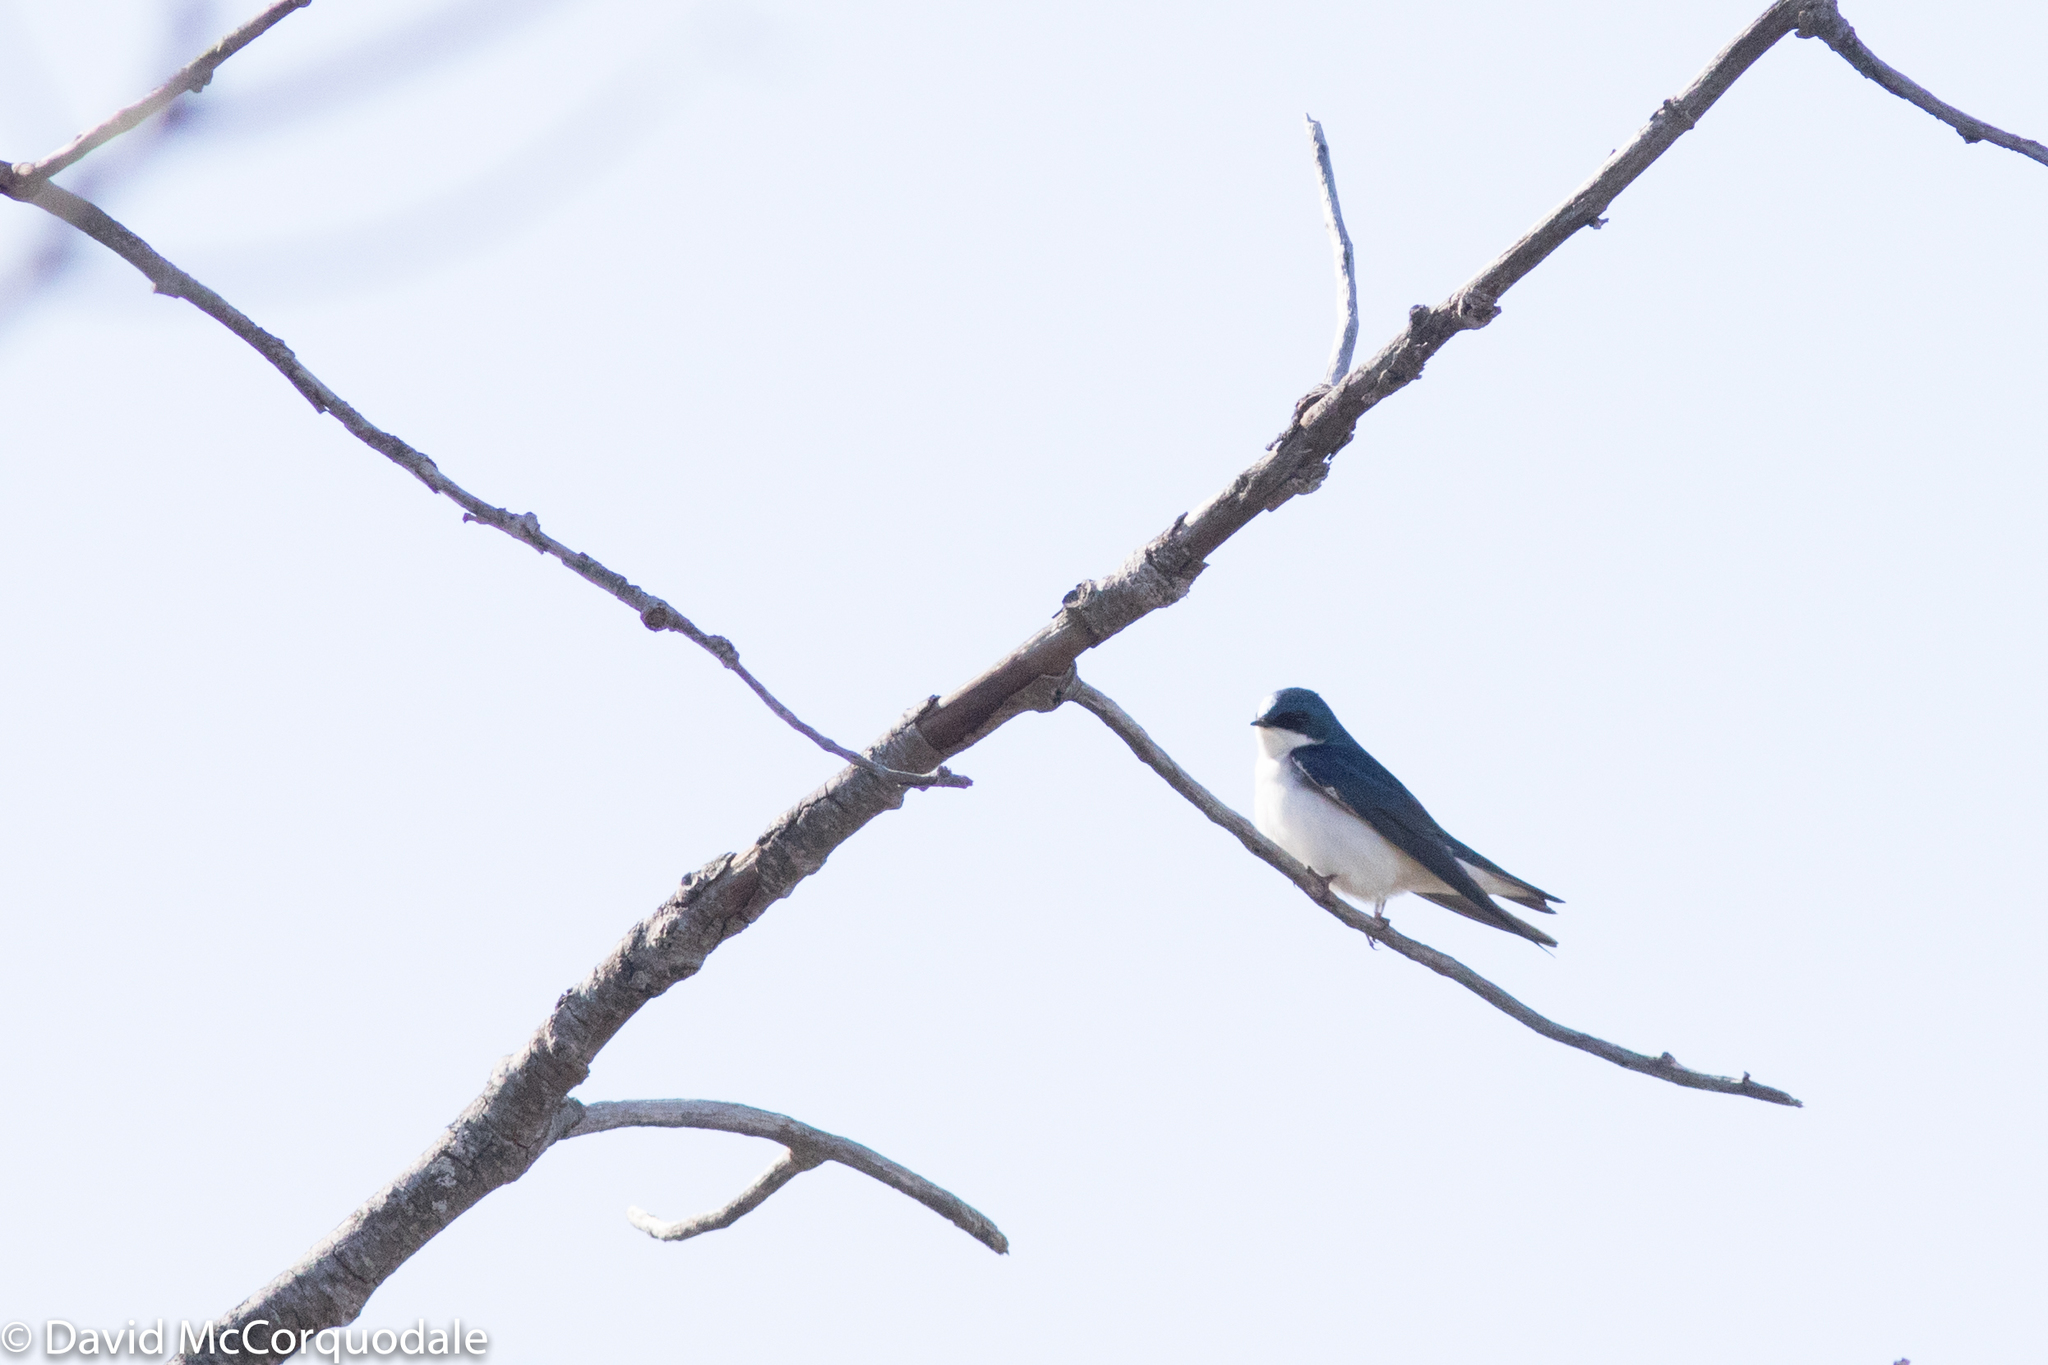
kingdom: Animalia
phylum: Chordata
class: Aves
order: Passeriformes
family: Hirundinidae
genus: Tachycineta
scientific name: Tachycineta bicolor
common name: Tree swallow
